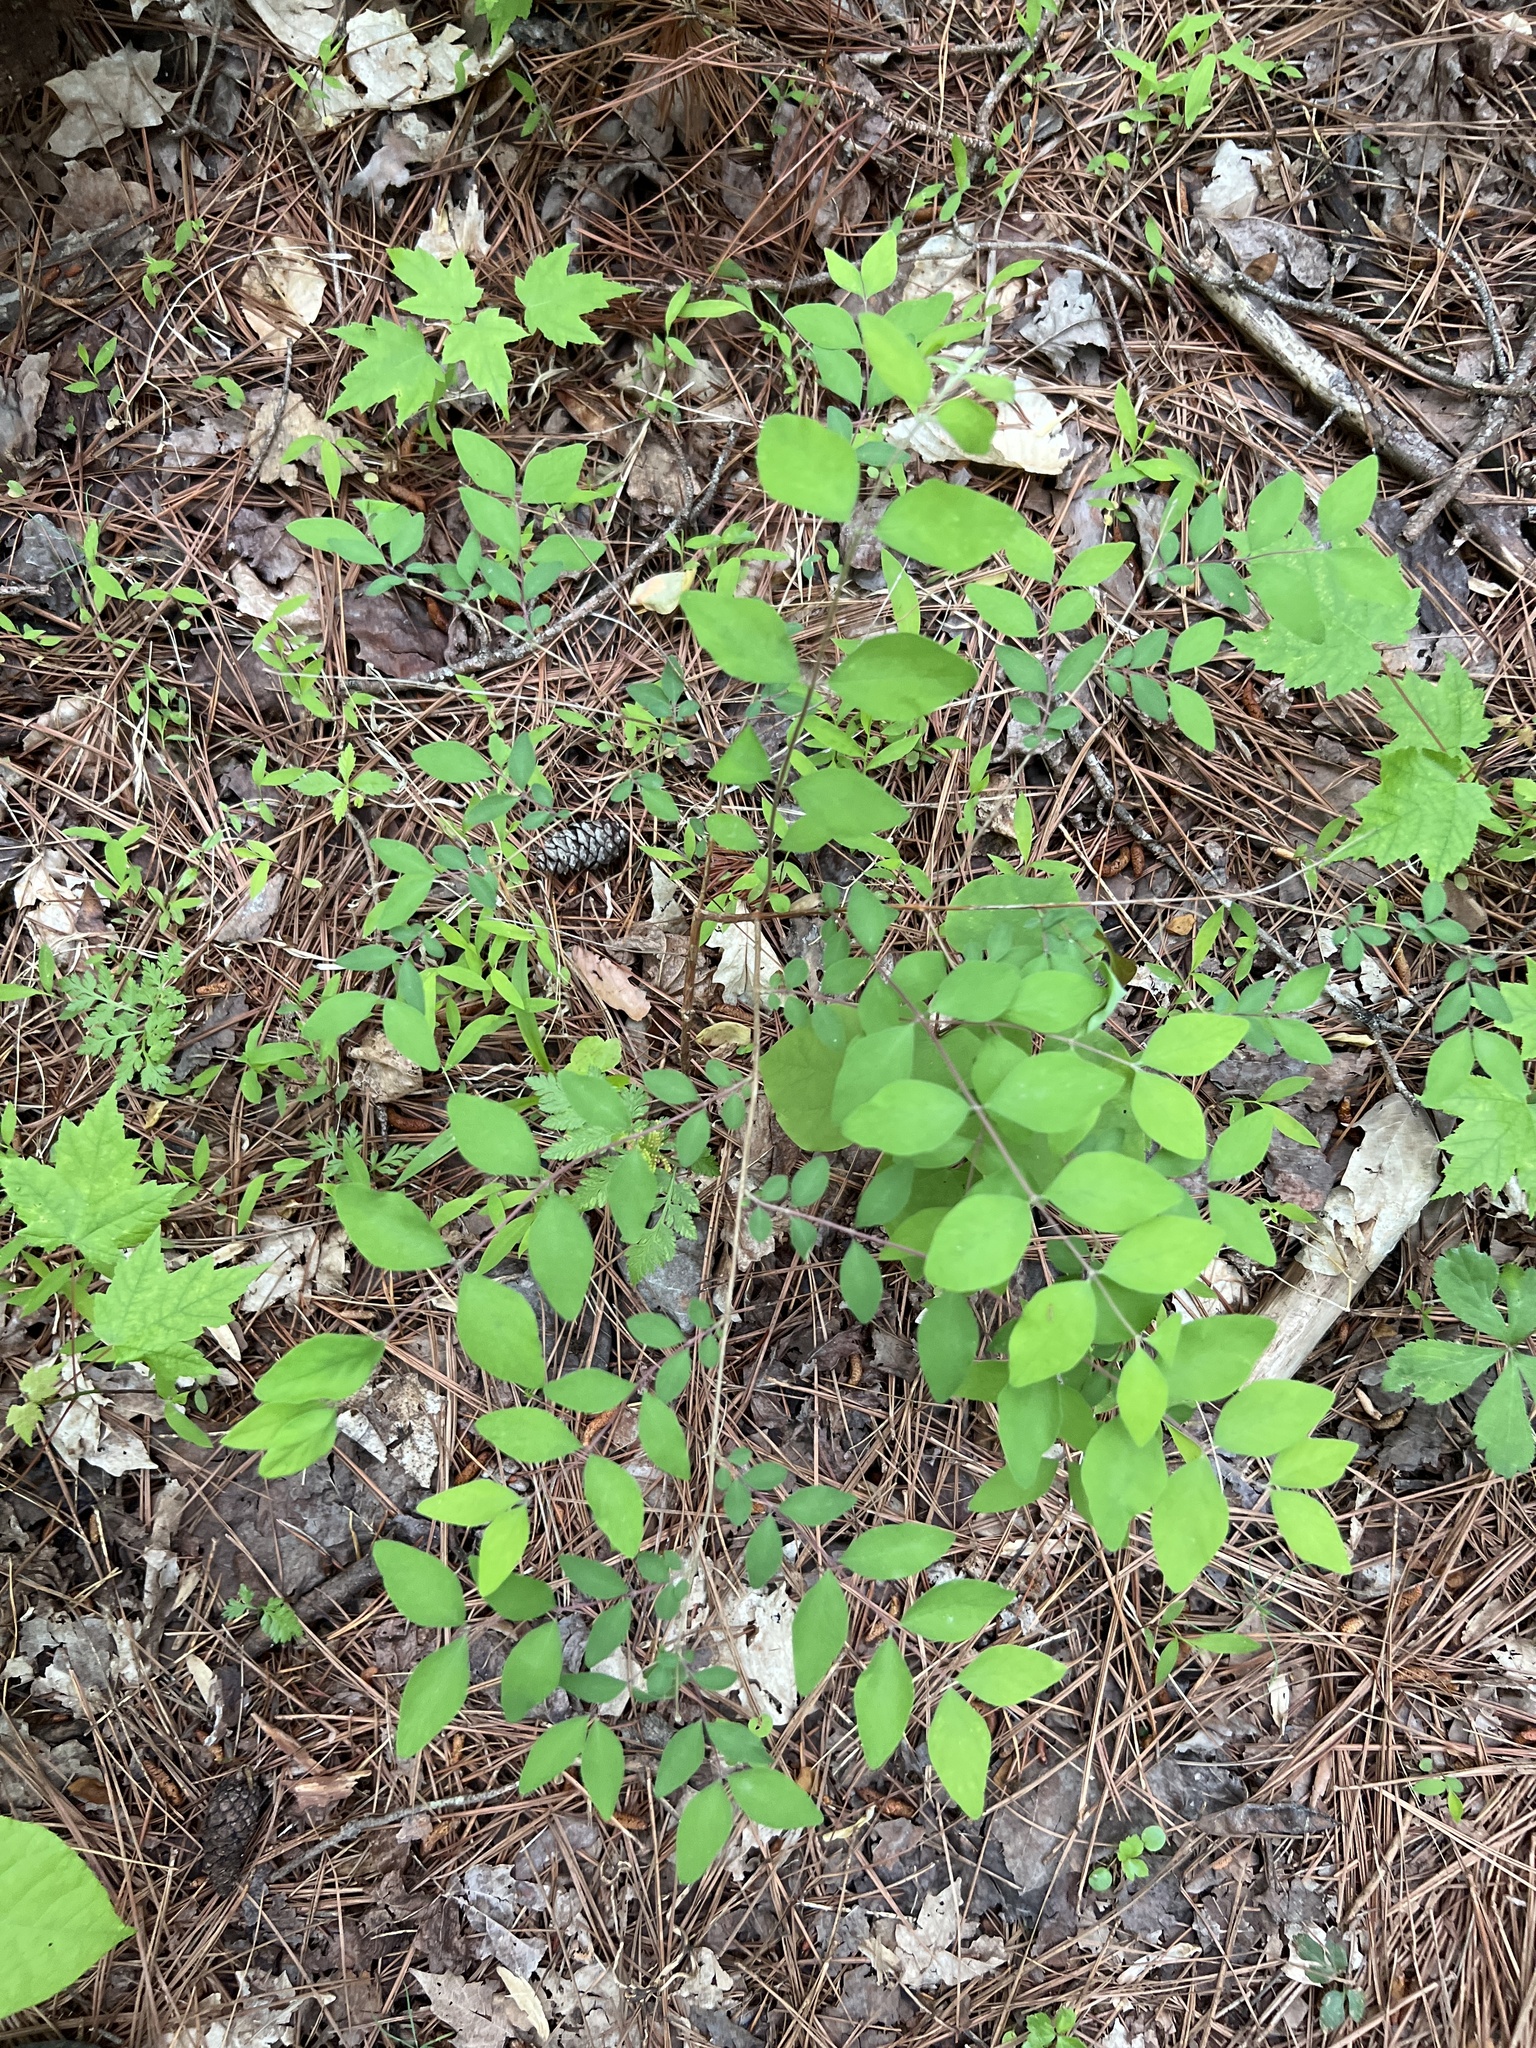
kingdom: Plantae
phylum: Tracheophyta
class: Magnoliopsida
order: Dipsacales
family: Caprifoliaceae
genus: Symphoricarpos
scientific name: Symphoricarpos orbiculatus
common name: Coralberry
